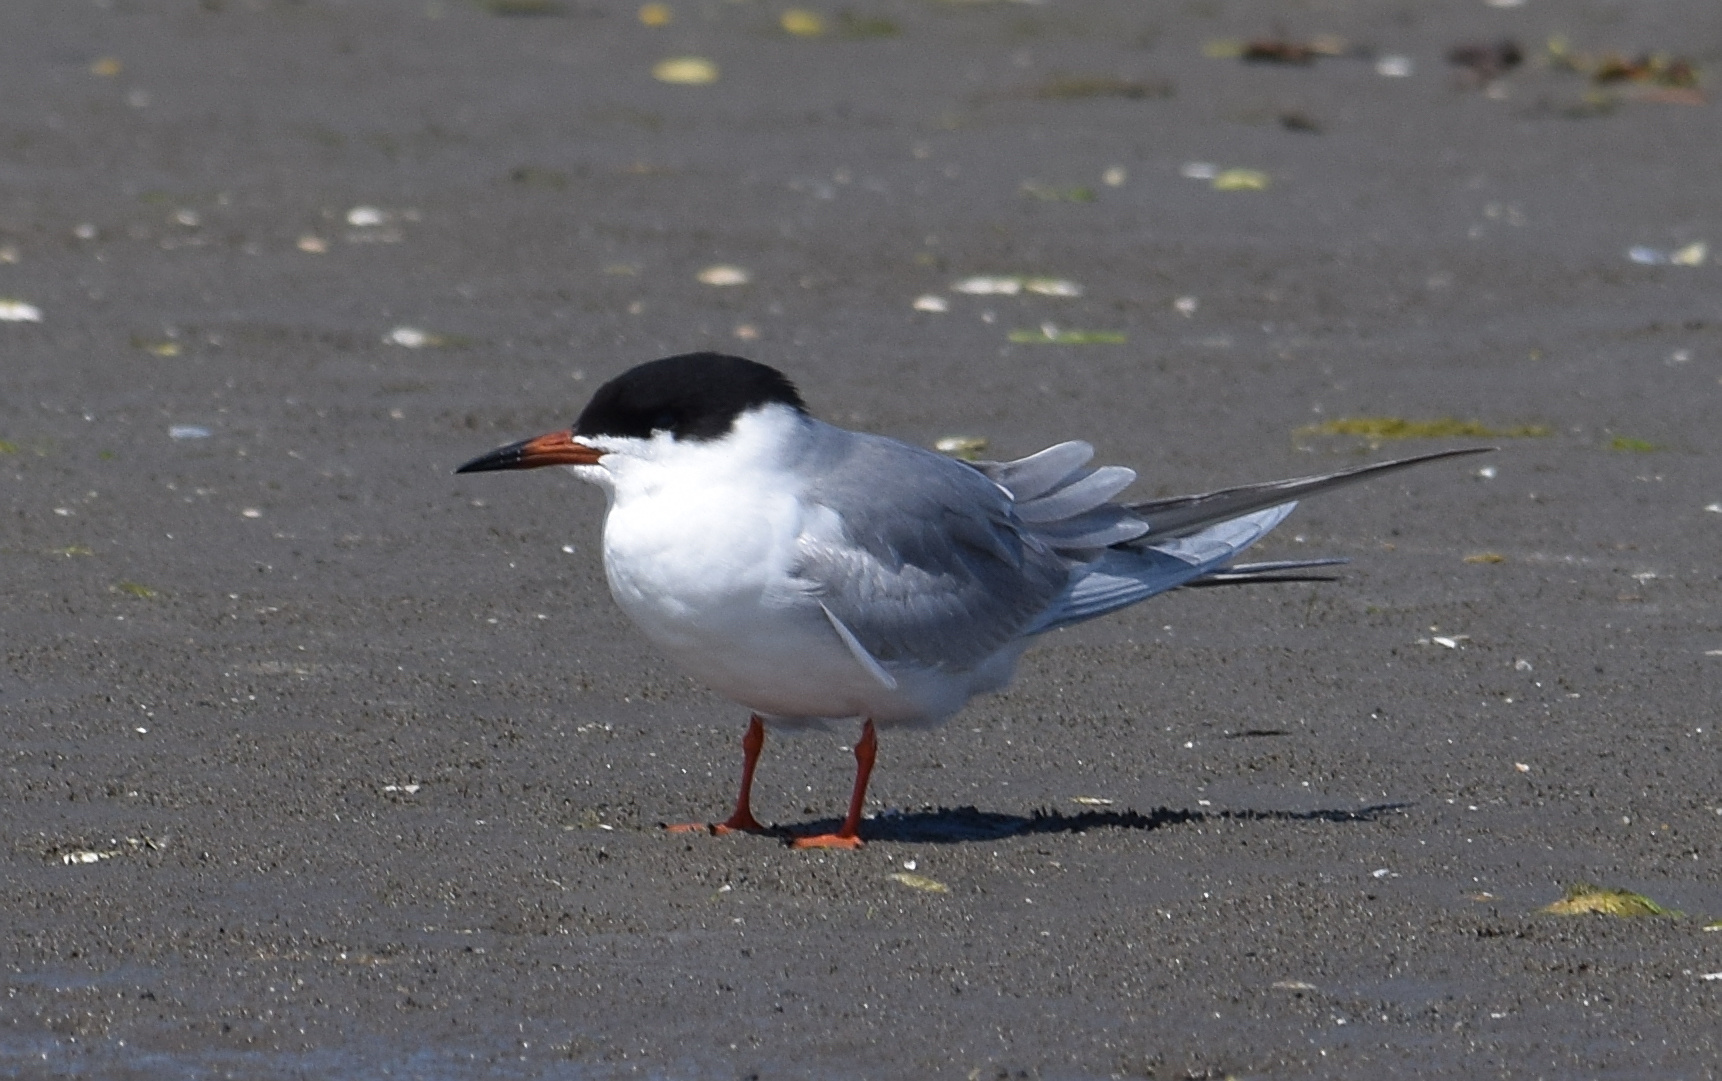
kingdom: Animalia
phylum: Chordata
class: Aves
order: Charadriiformes
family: Laridae
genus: Sterna
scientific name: Sterna forsteri
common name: Forster's tern
